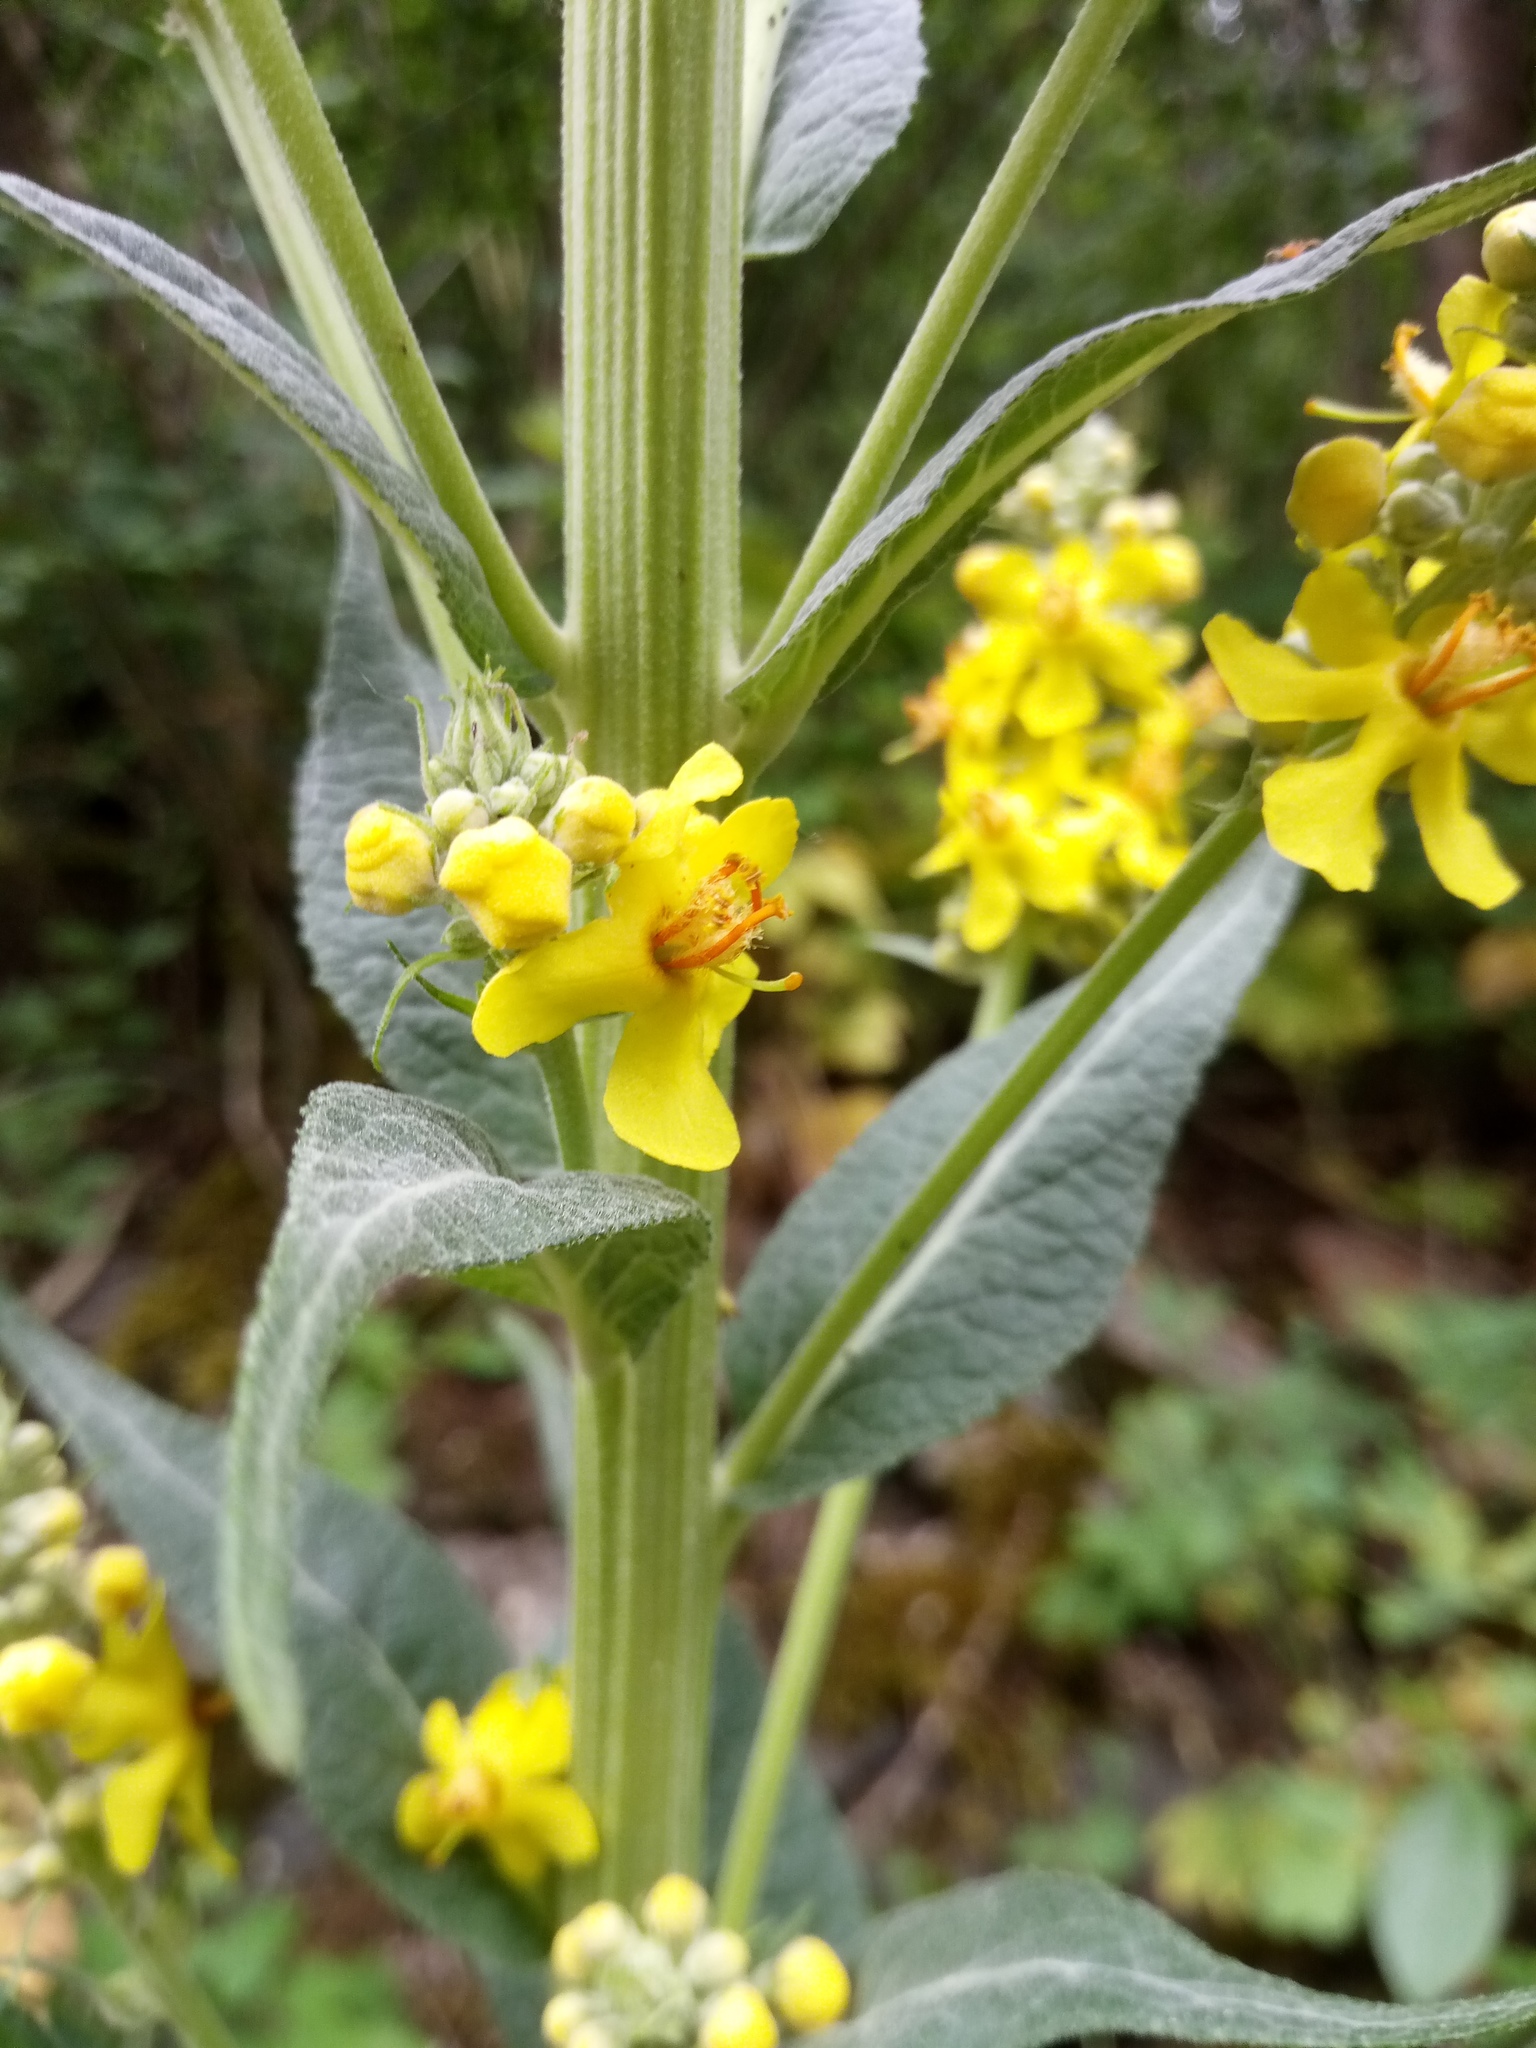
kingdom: Plantae
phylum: Tracheophyta
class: Magnoliopsida
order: Lamiales
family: Scrophulariaceae
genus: Verbascum
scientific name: Verbascum lychnitis
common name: White mullein
